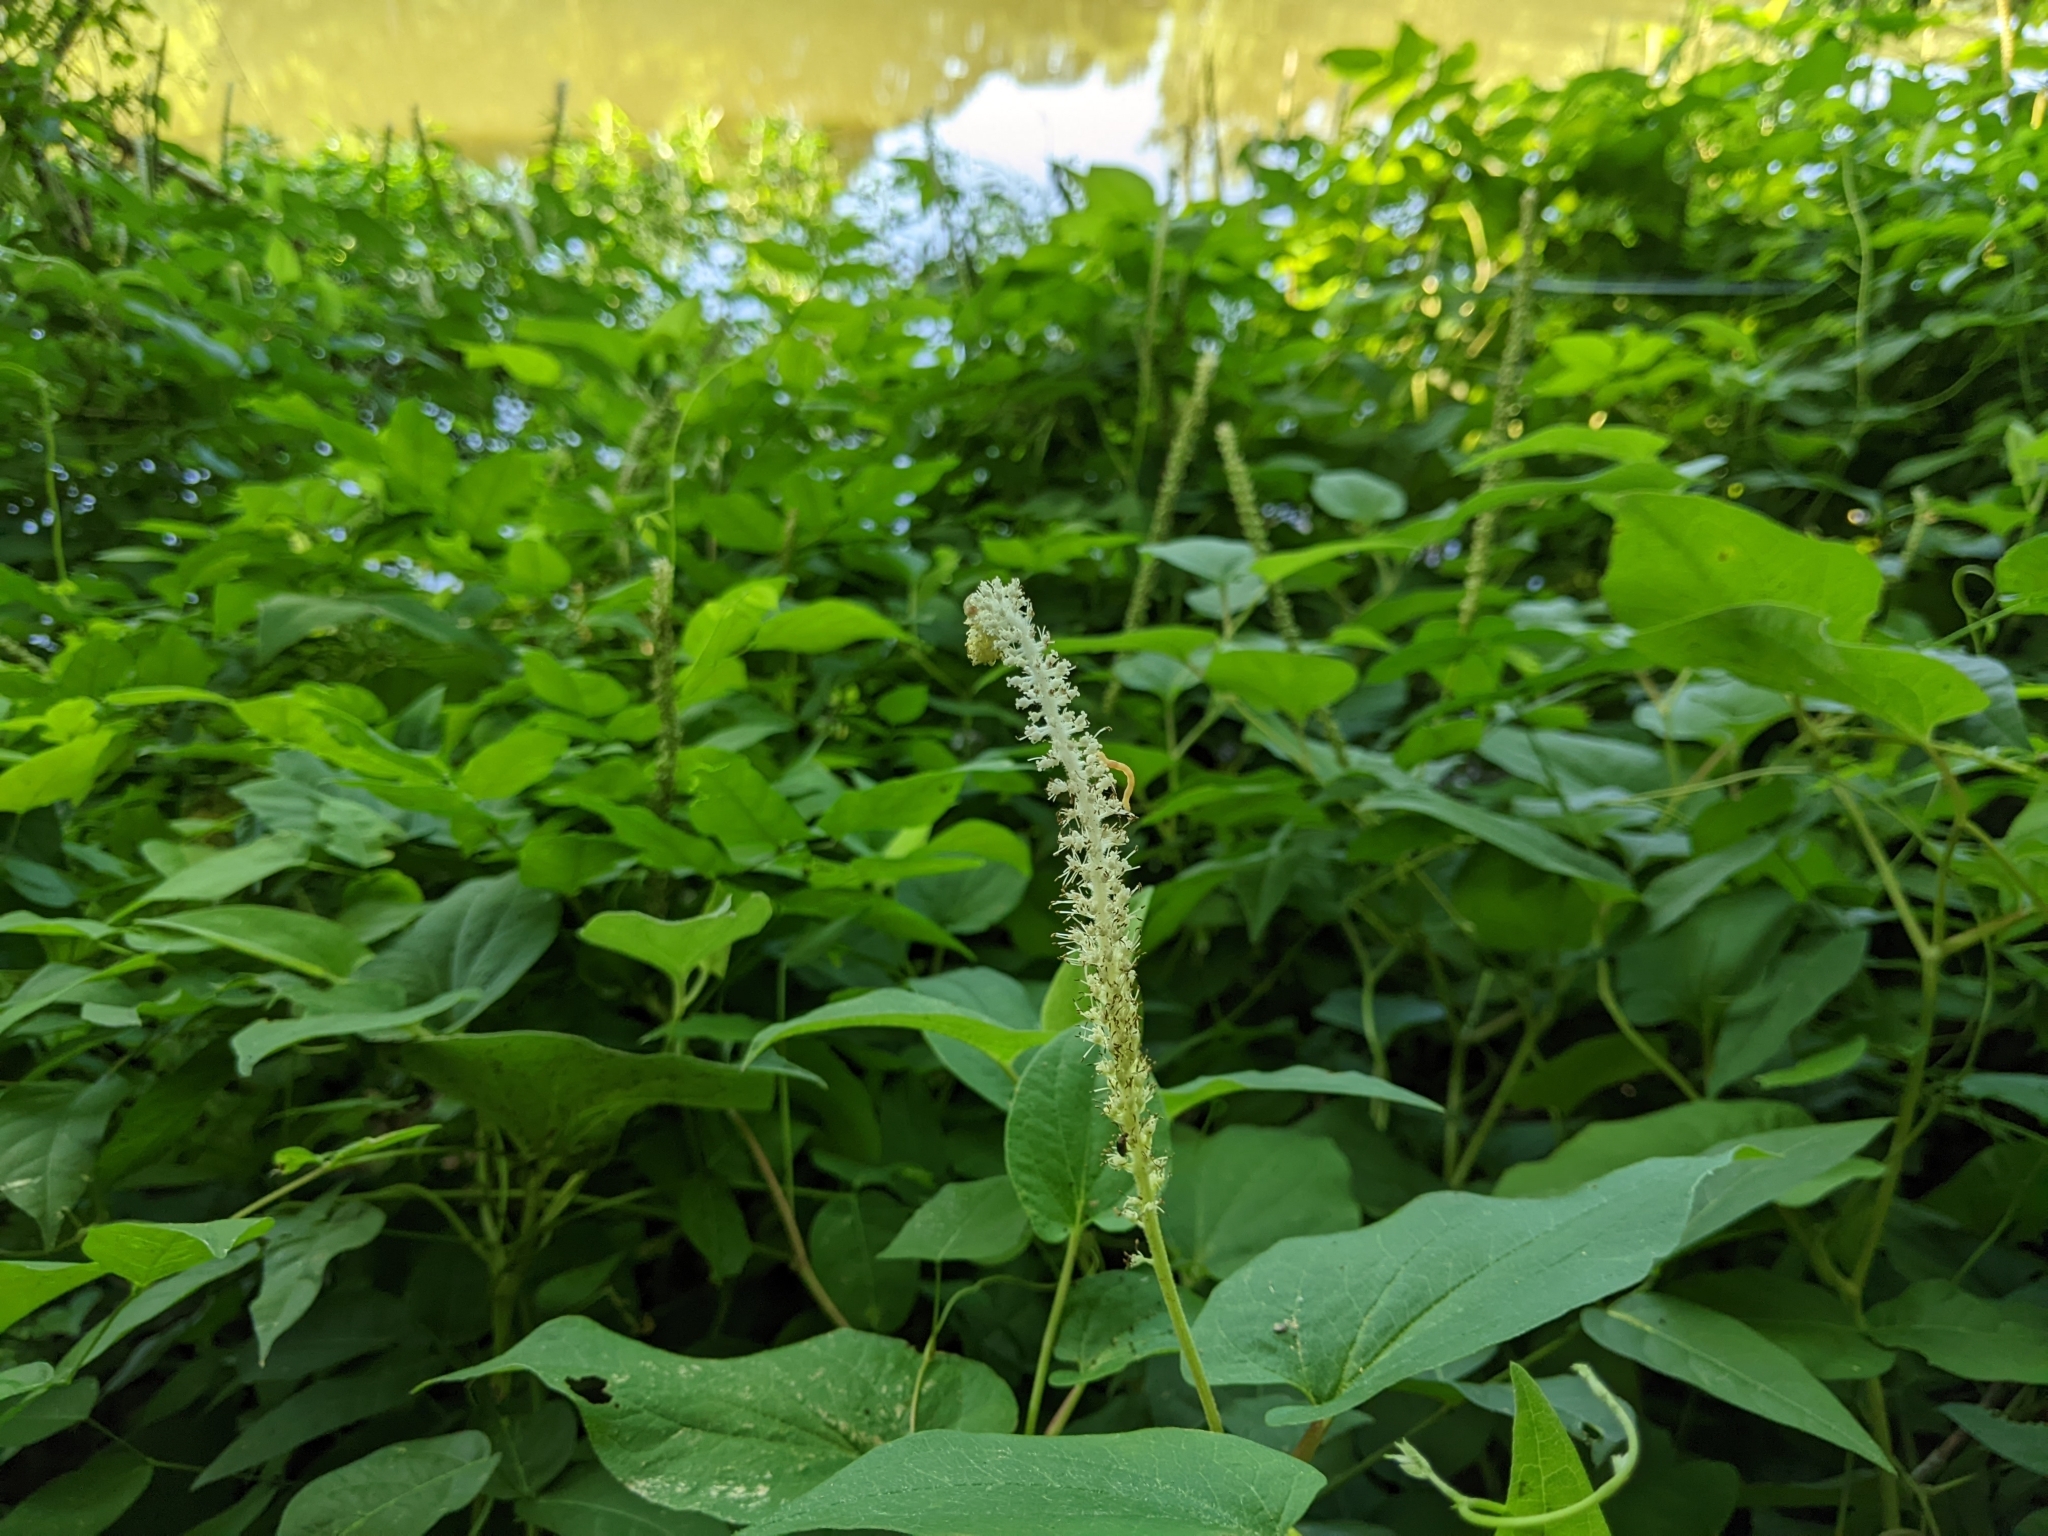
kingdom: Plantae
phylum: Tracheophyta
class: Magnoliopsida
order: Piperales
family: Saururaceae
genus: Saururus
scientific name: Saururus cernuus
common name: Lizard's-tail
